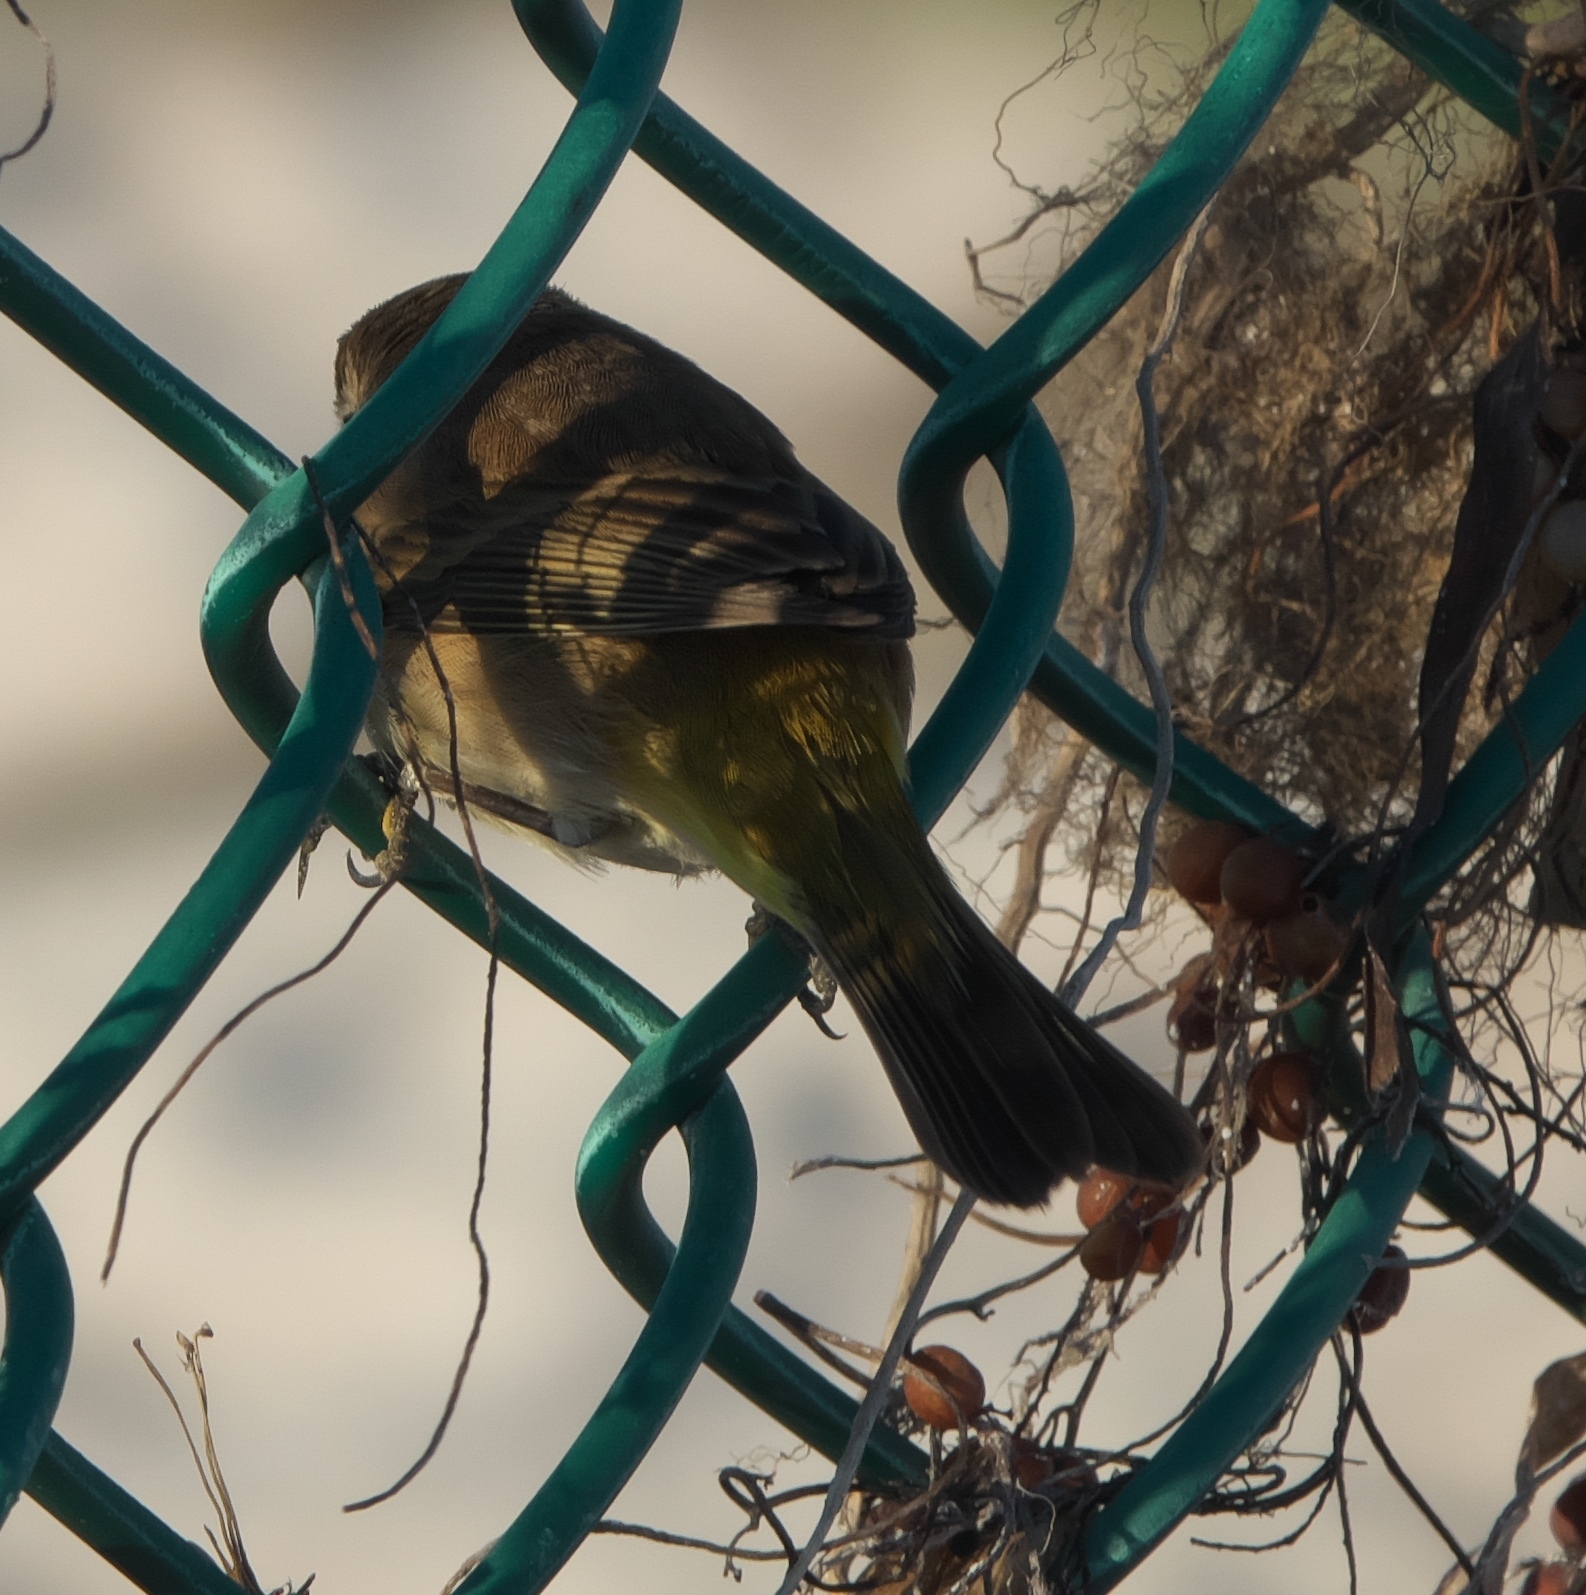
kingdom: Animalia
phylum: Chordata
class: Aves
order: Passeriformes
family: Parulidae
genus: Setophaga
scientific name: Setophaga palmarum
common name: Palm warbler
